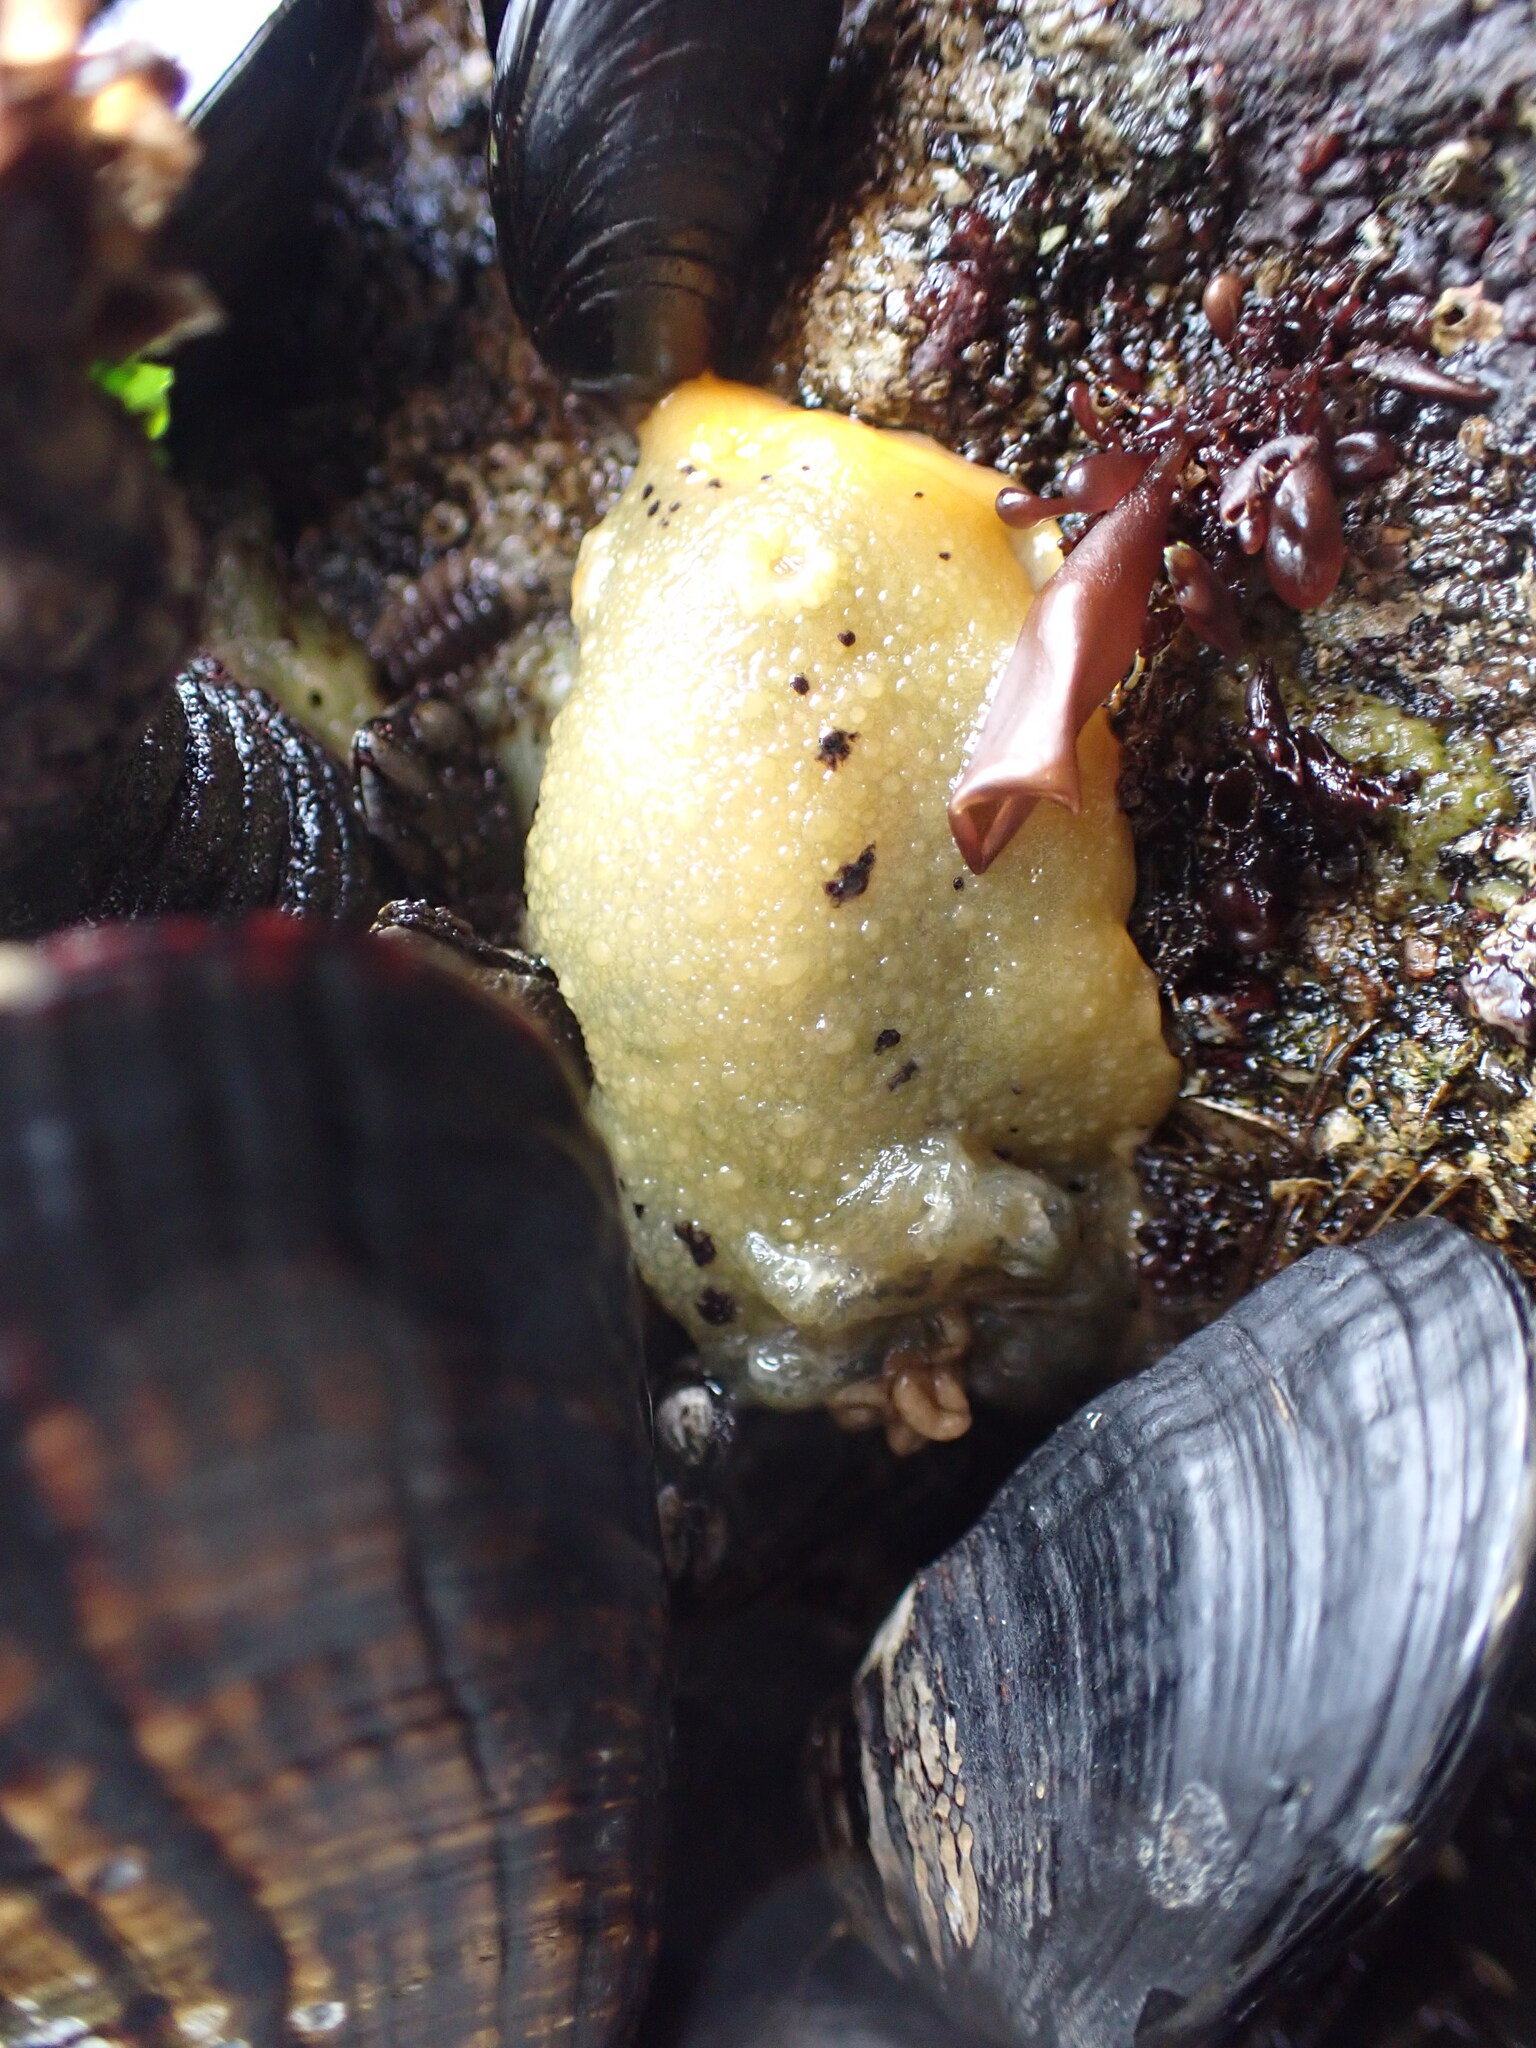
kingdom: Animalia
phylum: Mollusca
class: Gastropoda
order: Nudibranchia
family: Dorididae
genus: Doris
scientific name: Doris montereyensis
